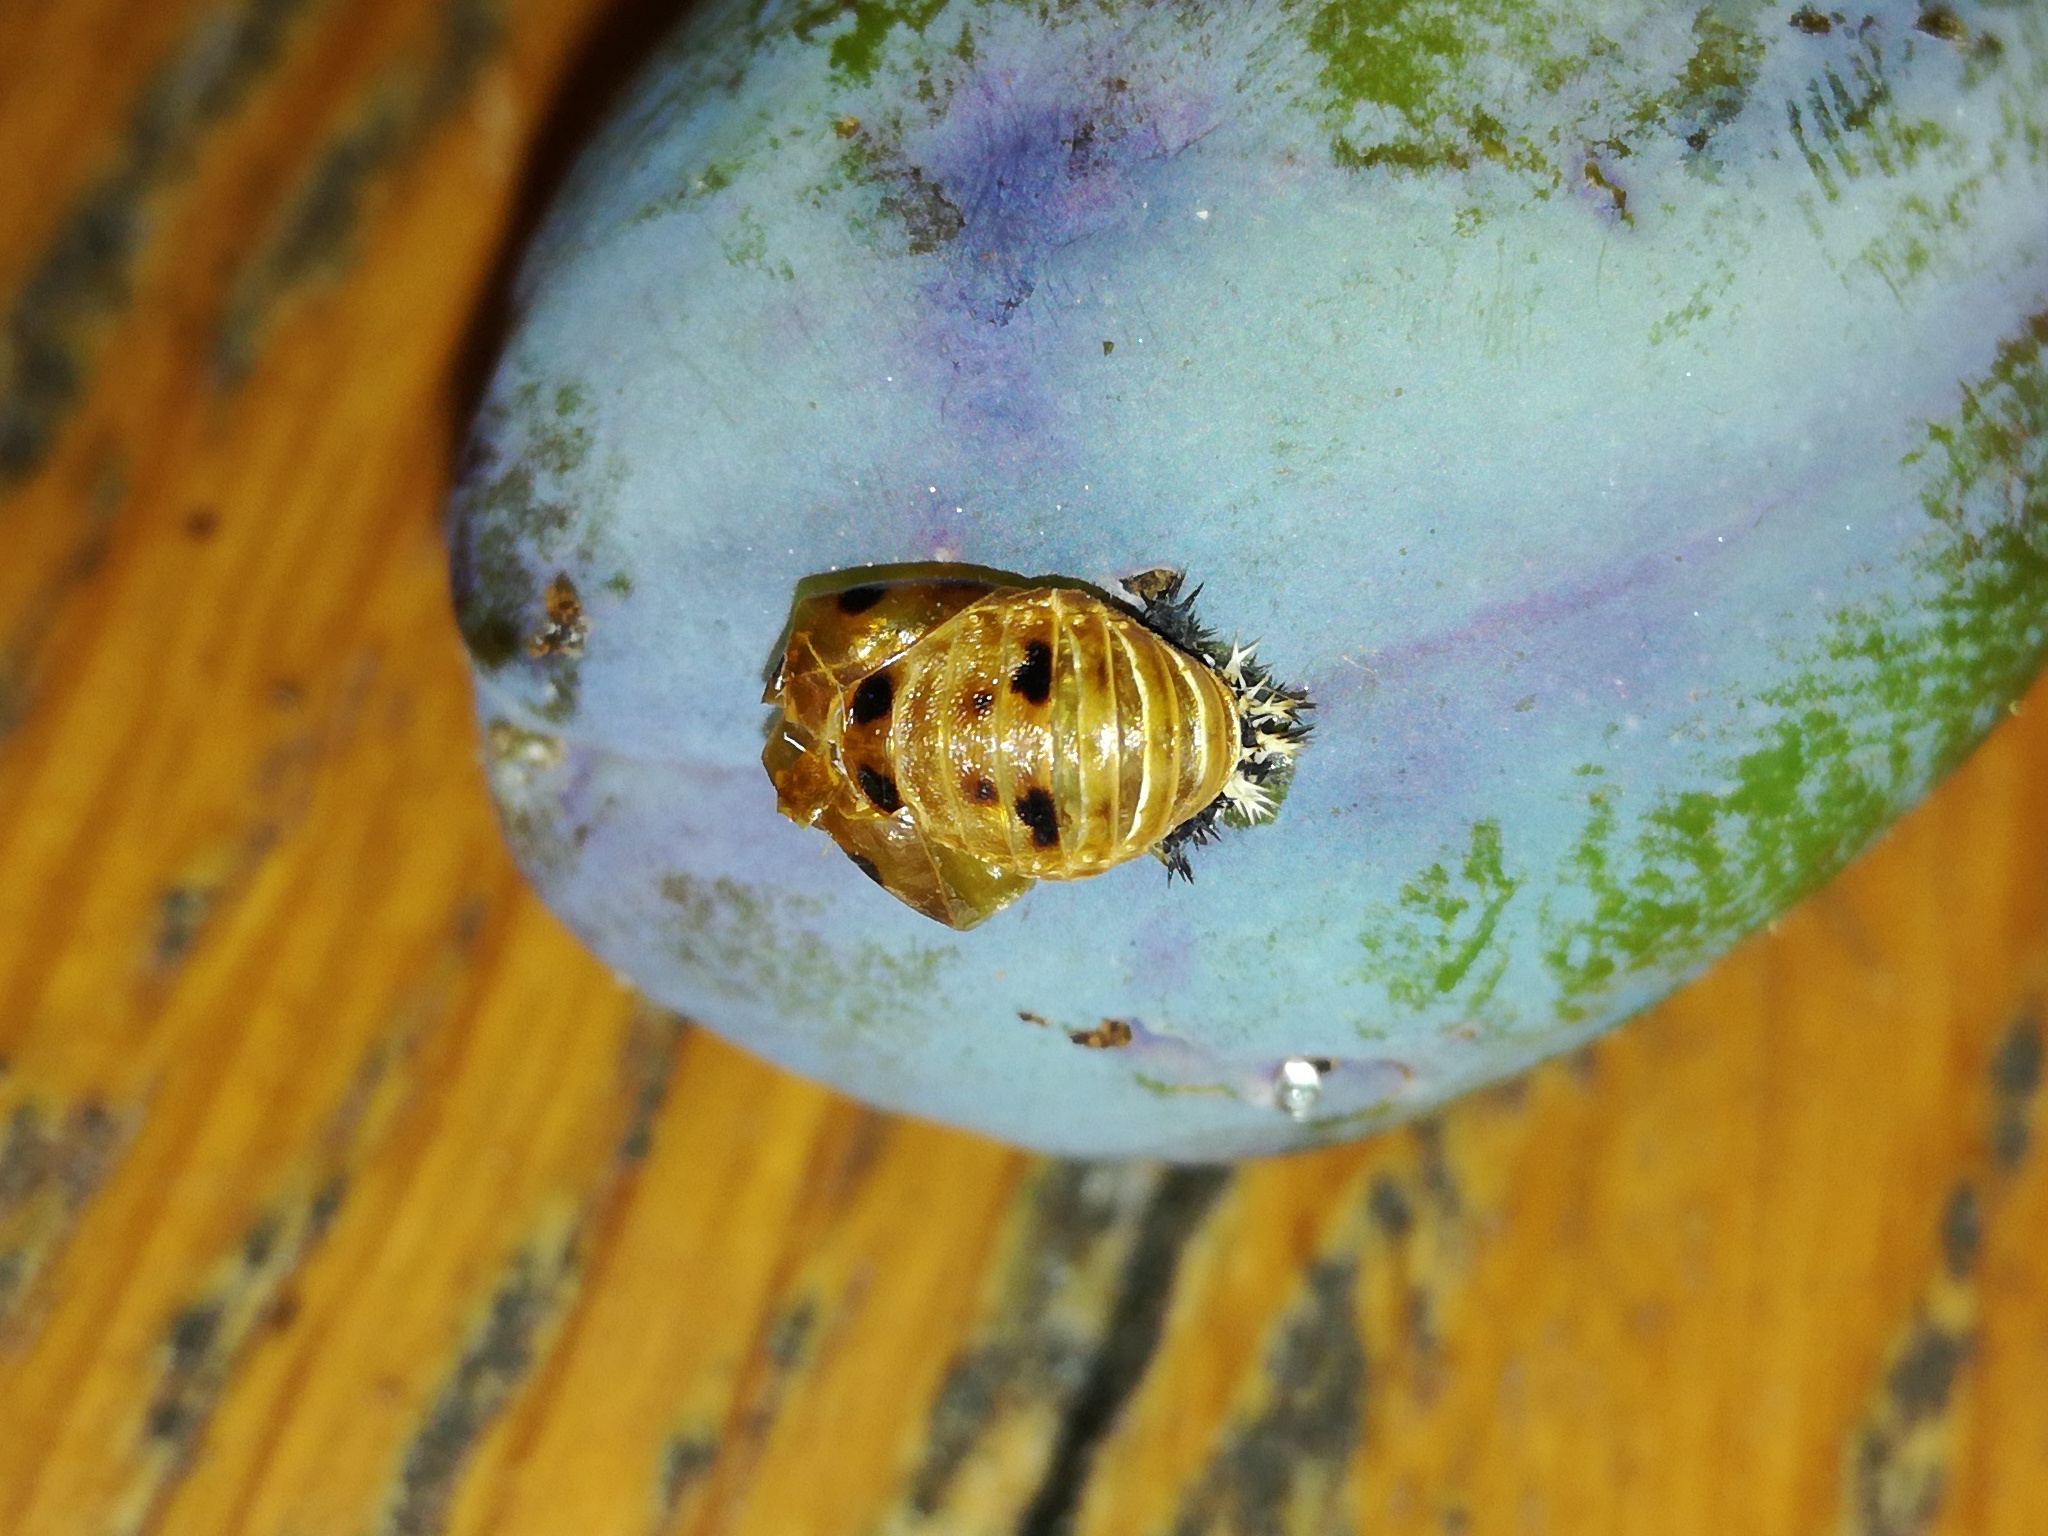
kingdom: Animalia
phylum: Arthropoda
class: Insecta
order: Coleoptera
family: Coccinellidae
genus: Harmonia
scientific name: Harmonia axyridis
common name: Harlequin ladybird
